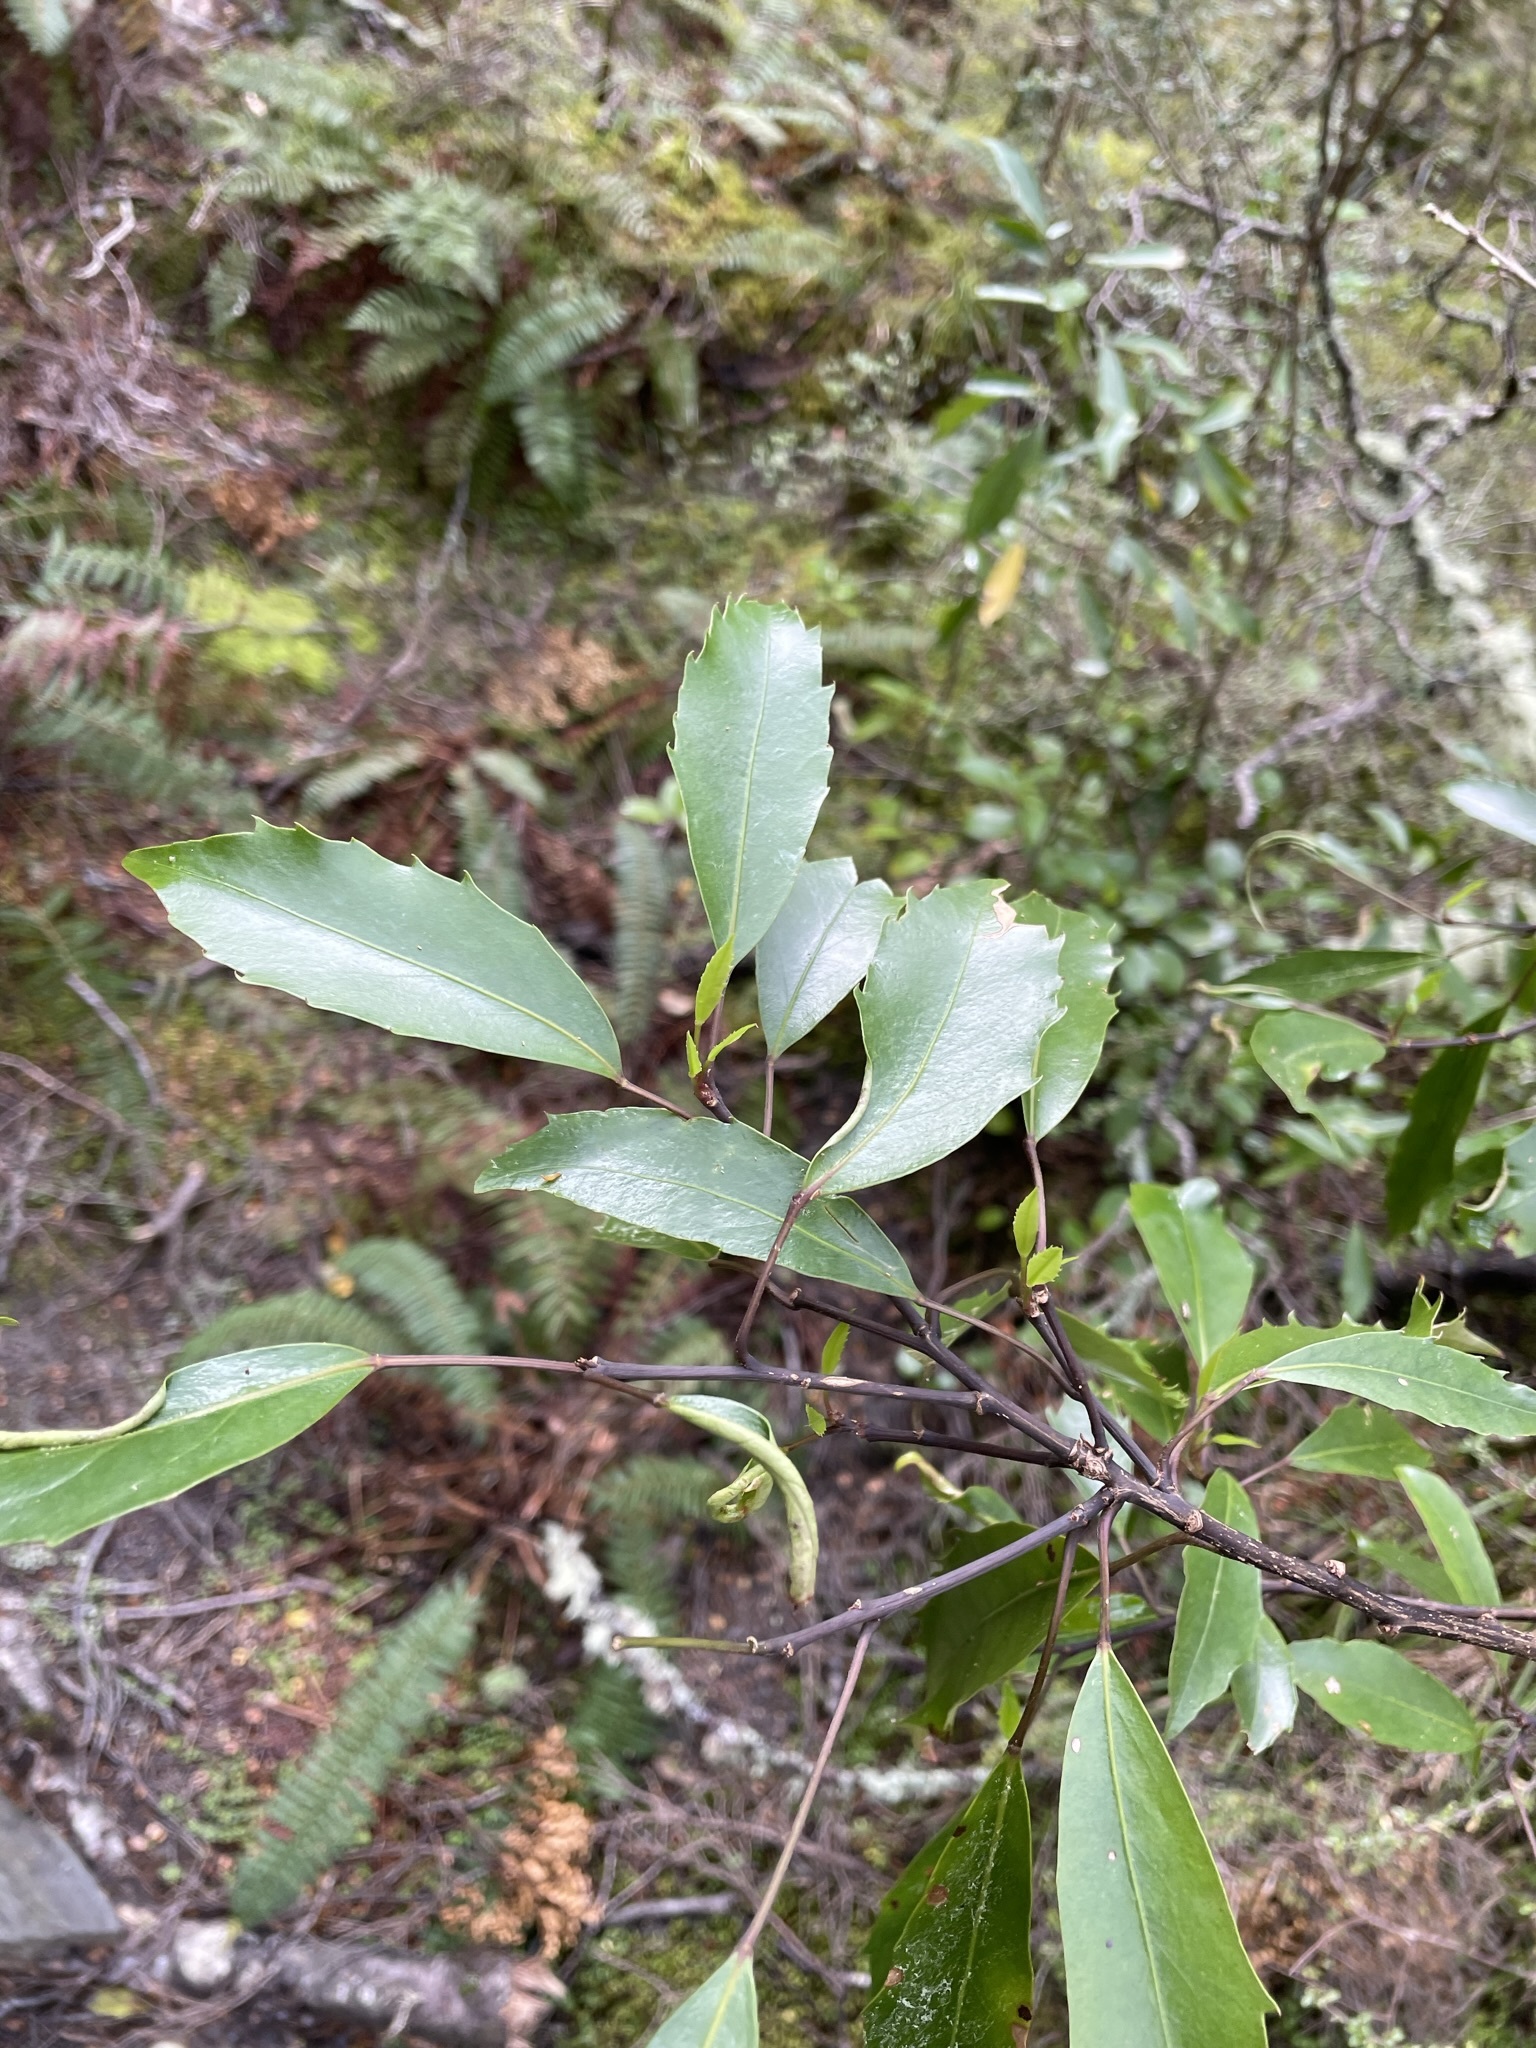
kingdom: Plantae
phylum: Tracheophyta
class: Magnoliopsida
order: Apiales
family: Araliaceae
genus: Raukaua
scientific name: Raukaua simplex
